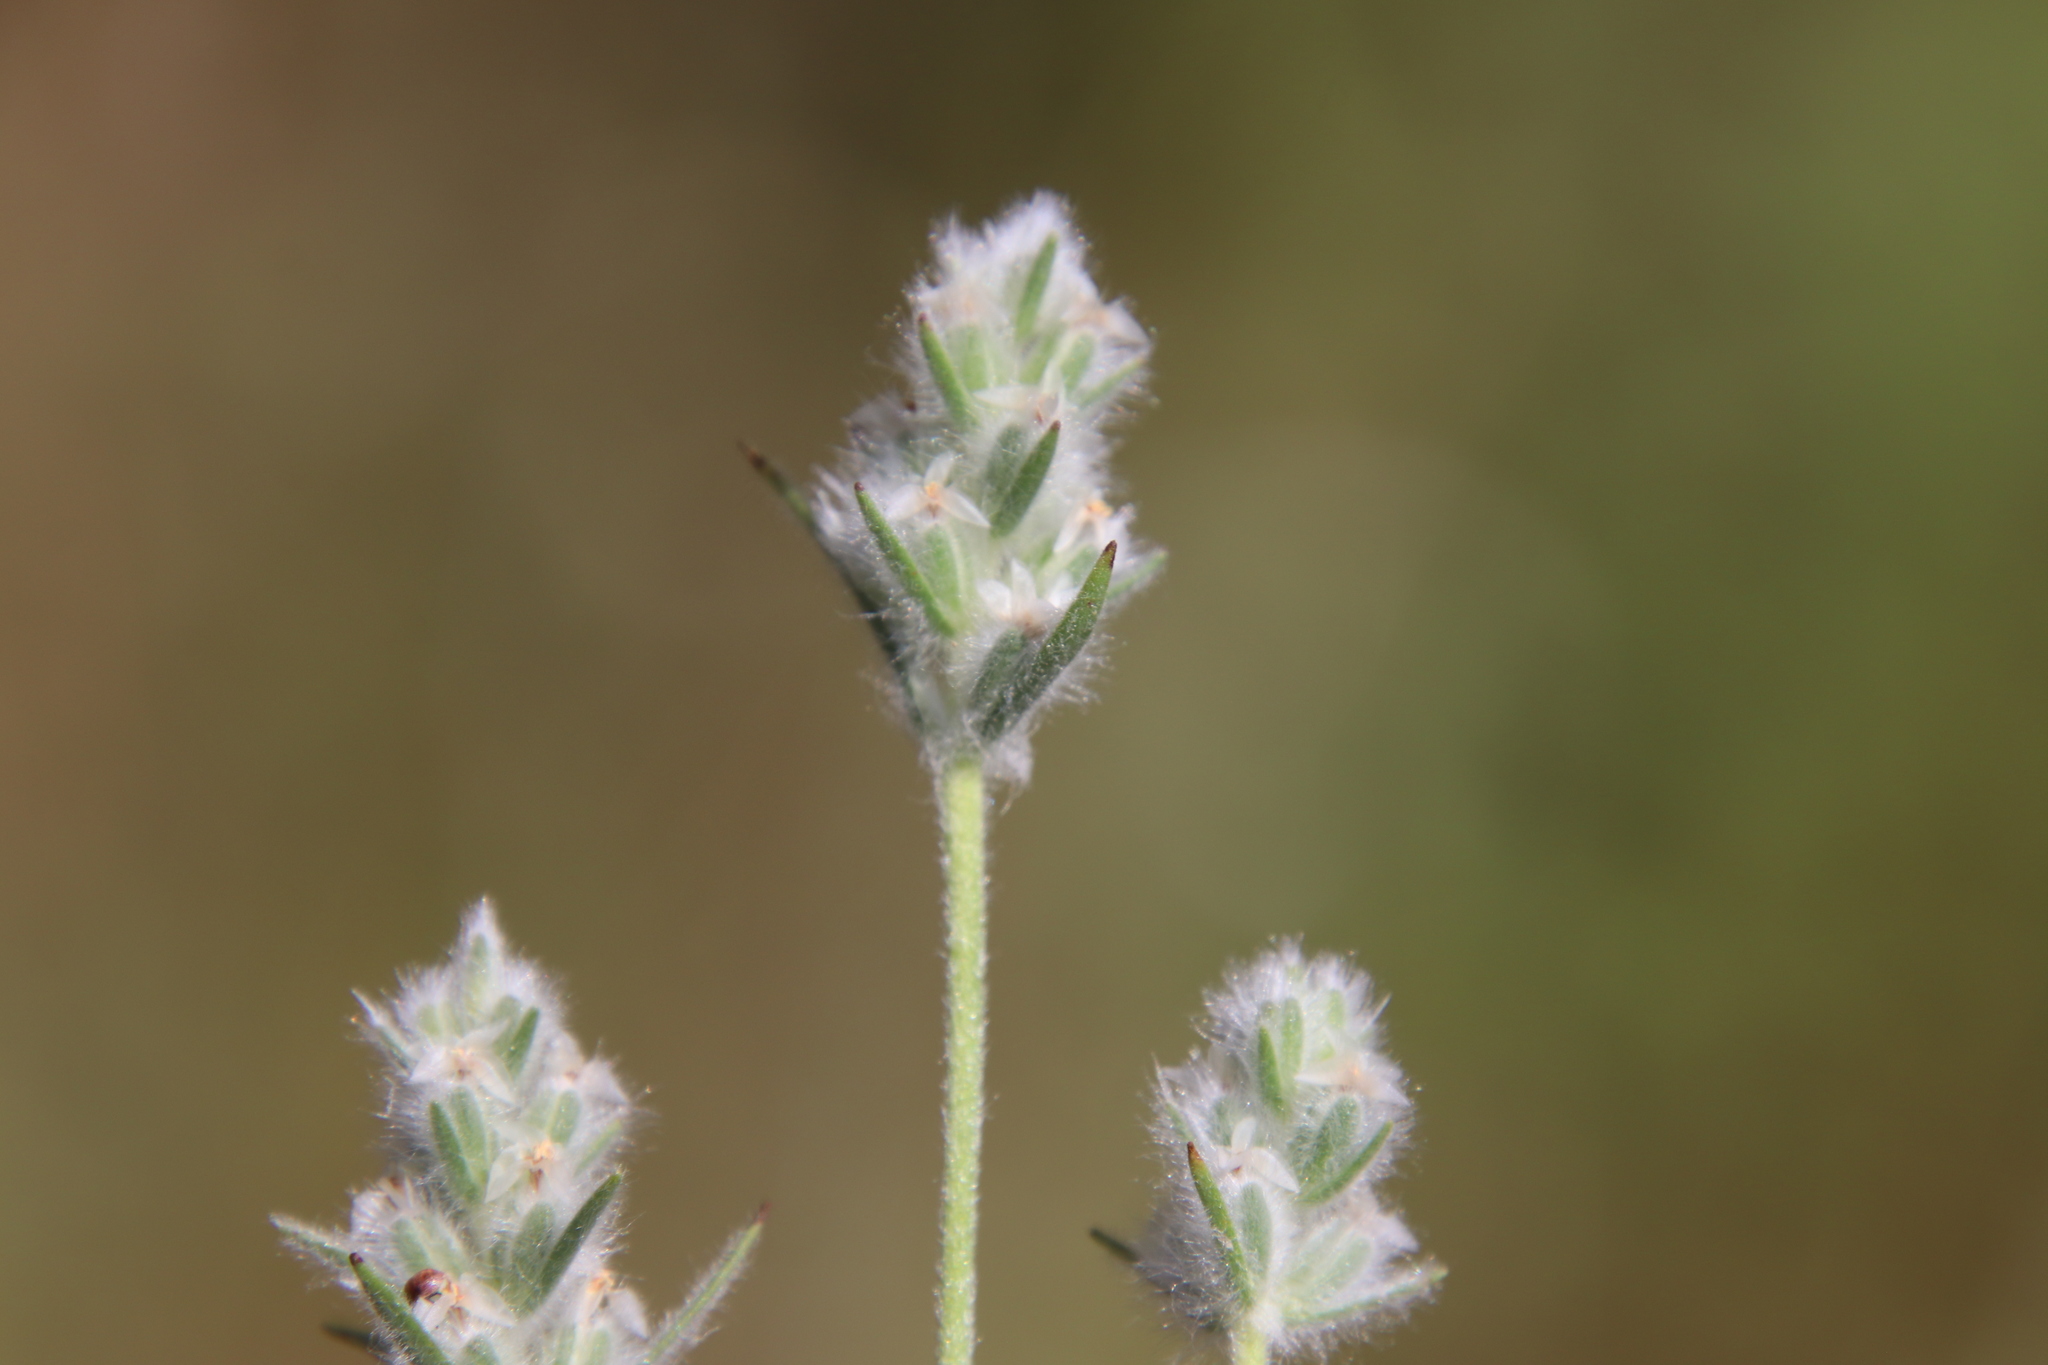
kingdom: Plantae
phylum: Tracheophyta
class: Magnoliopsida
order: Lamiales
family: Plantaginaceae
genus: Plantago
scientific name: Plantago patagonica
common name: Patagonia indian-wheat
